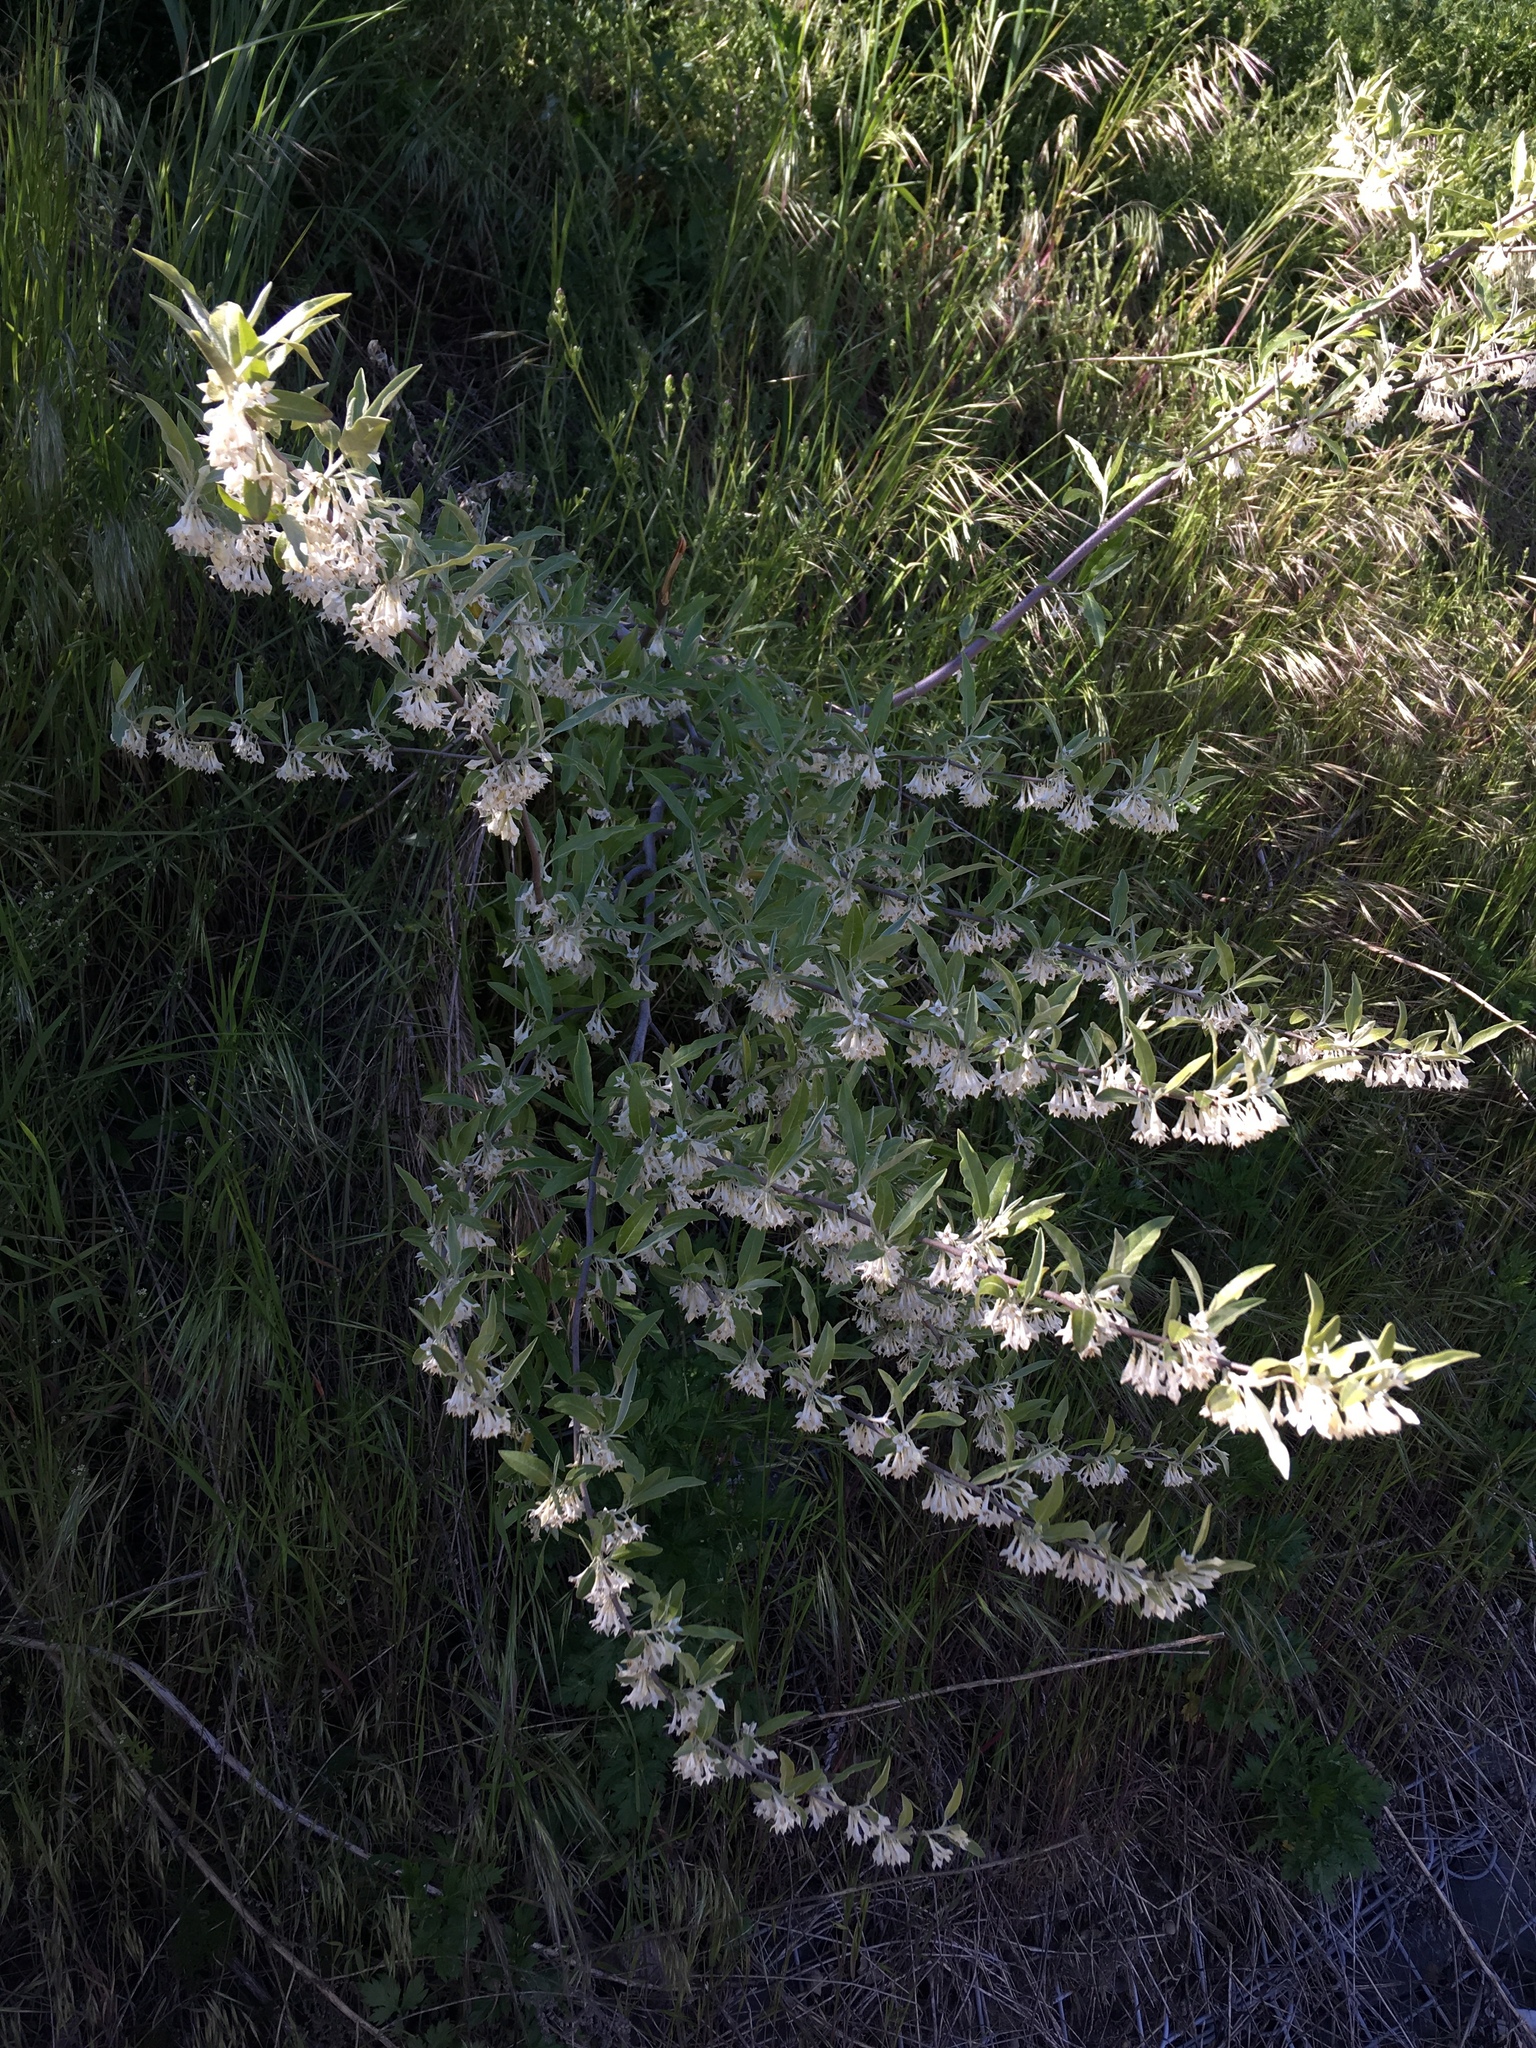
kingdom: Plantae
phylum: Tracheophyta
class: Magnoliopsida
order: Rosales
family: Elaeagnaceae
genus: Elaeagnus
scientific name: Elaeagnus umbellata
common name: Autumn olive
